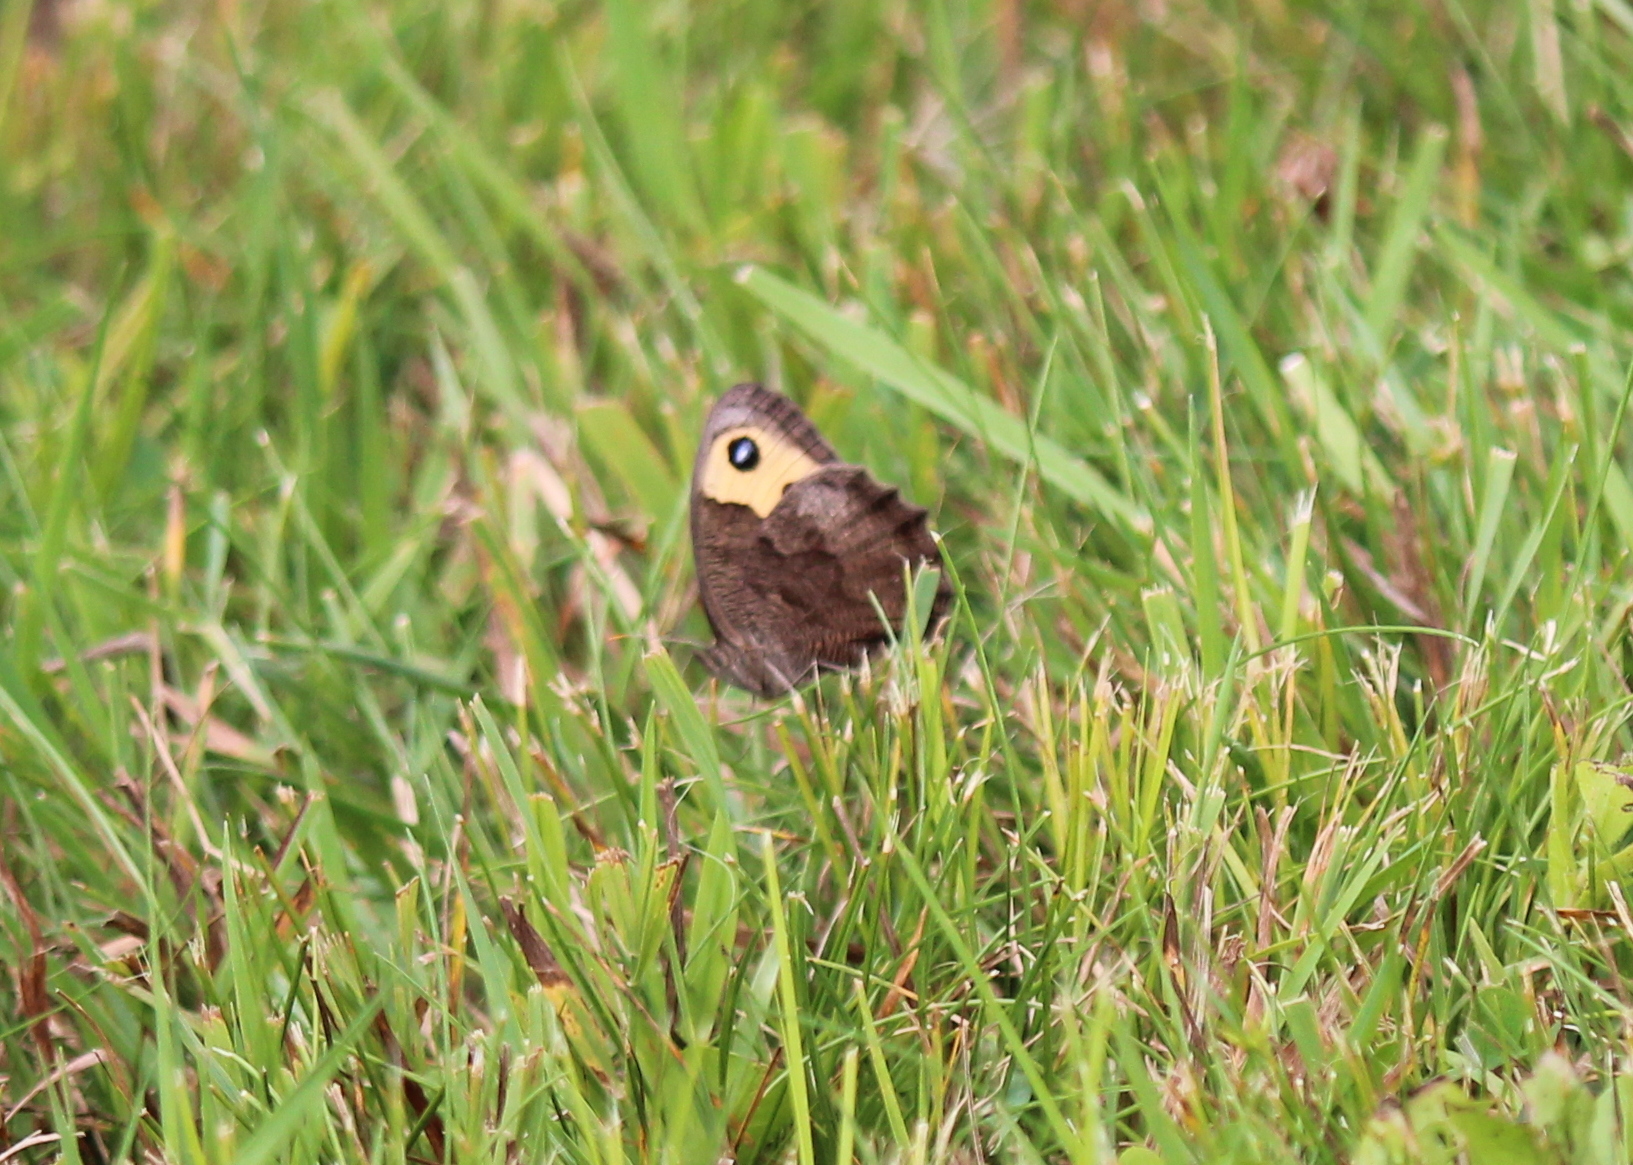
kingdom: Animalia
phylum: Arthropoda
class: Insecta
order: Lepidoptera
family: Nymphalidae
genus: Cercyonis
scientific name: Cercyonis pegala
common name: Common wood-nymph
